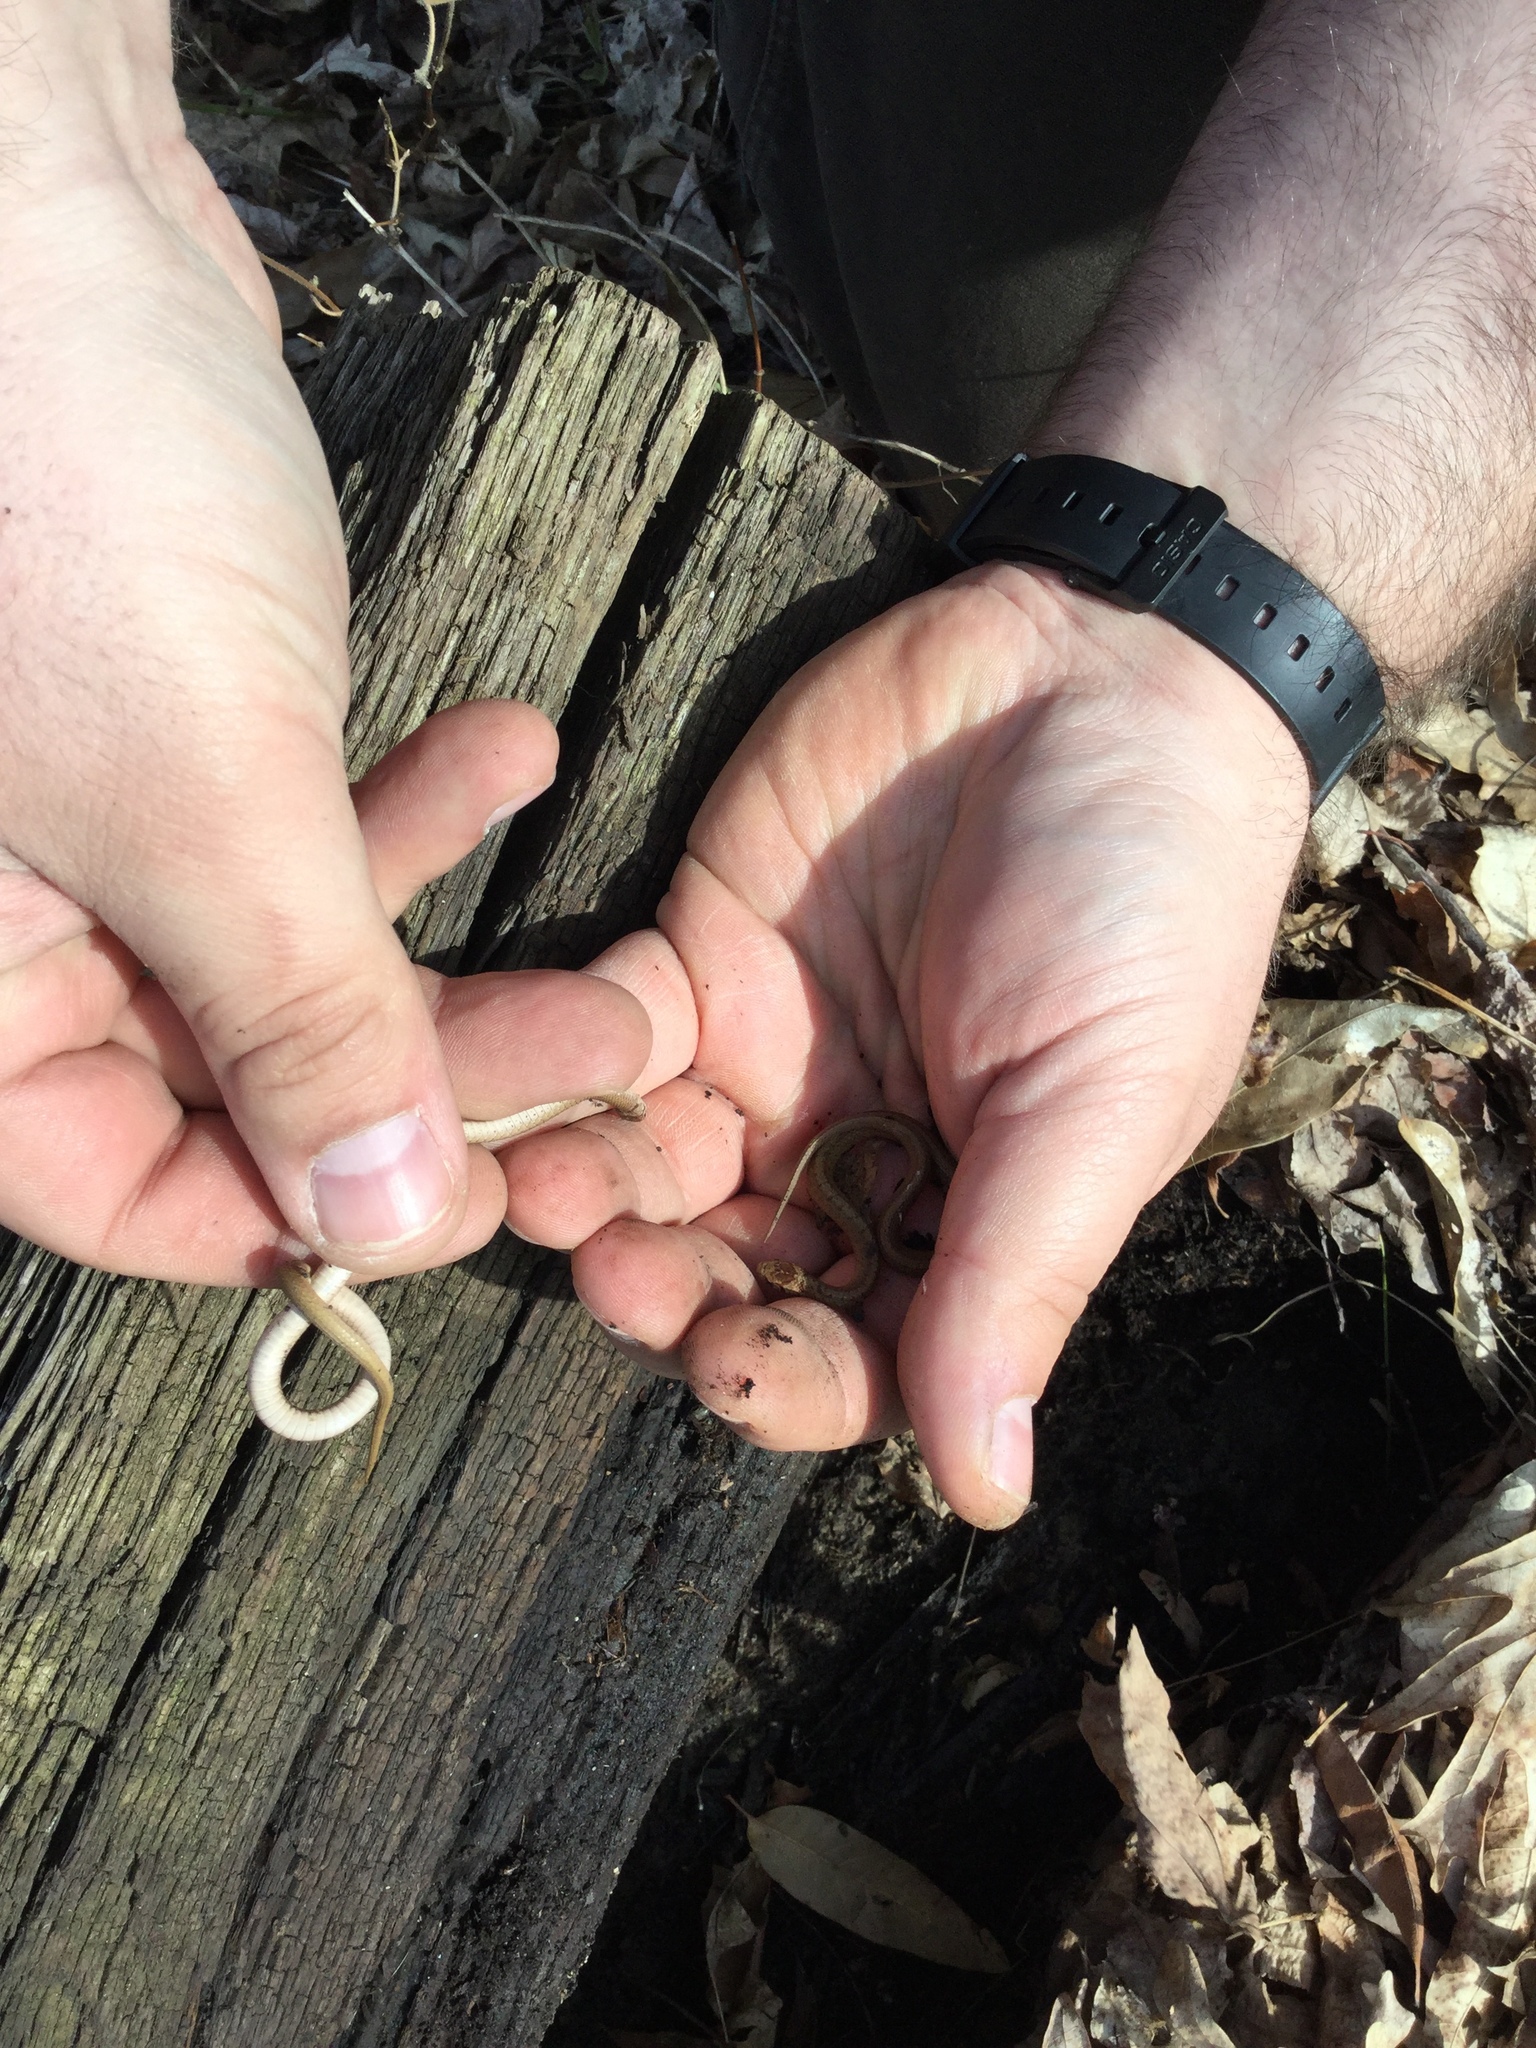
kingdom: Animalia
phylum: Chordata
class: Squamata
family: Colubridae
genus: Storeria
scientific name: Storeria dekayi
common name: (dekay’s) brown snake
